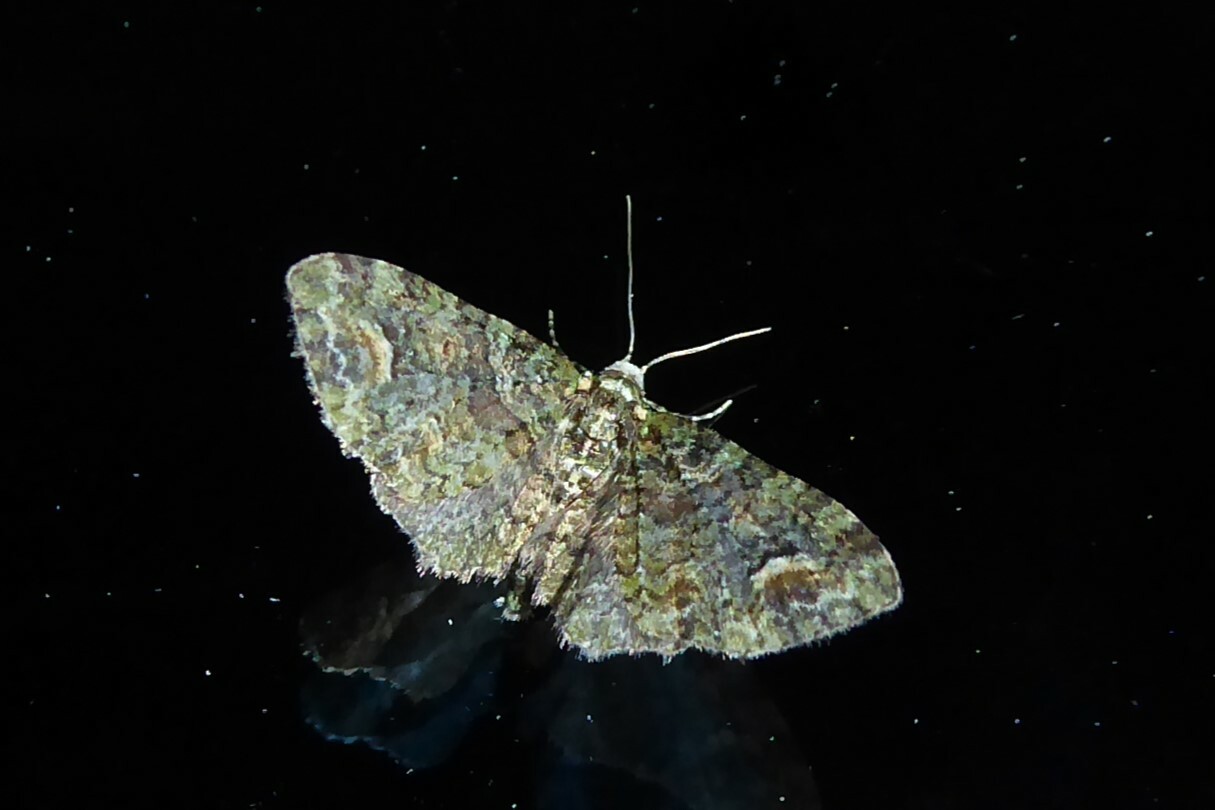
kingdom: Animalia
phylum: Arthropoda
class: Insecta
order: Lepidoptera
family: Geometridae
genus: Idaea
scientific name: Idaea mutanda
